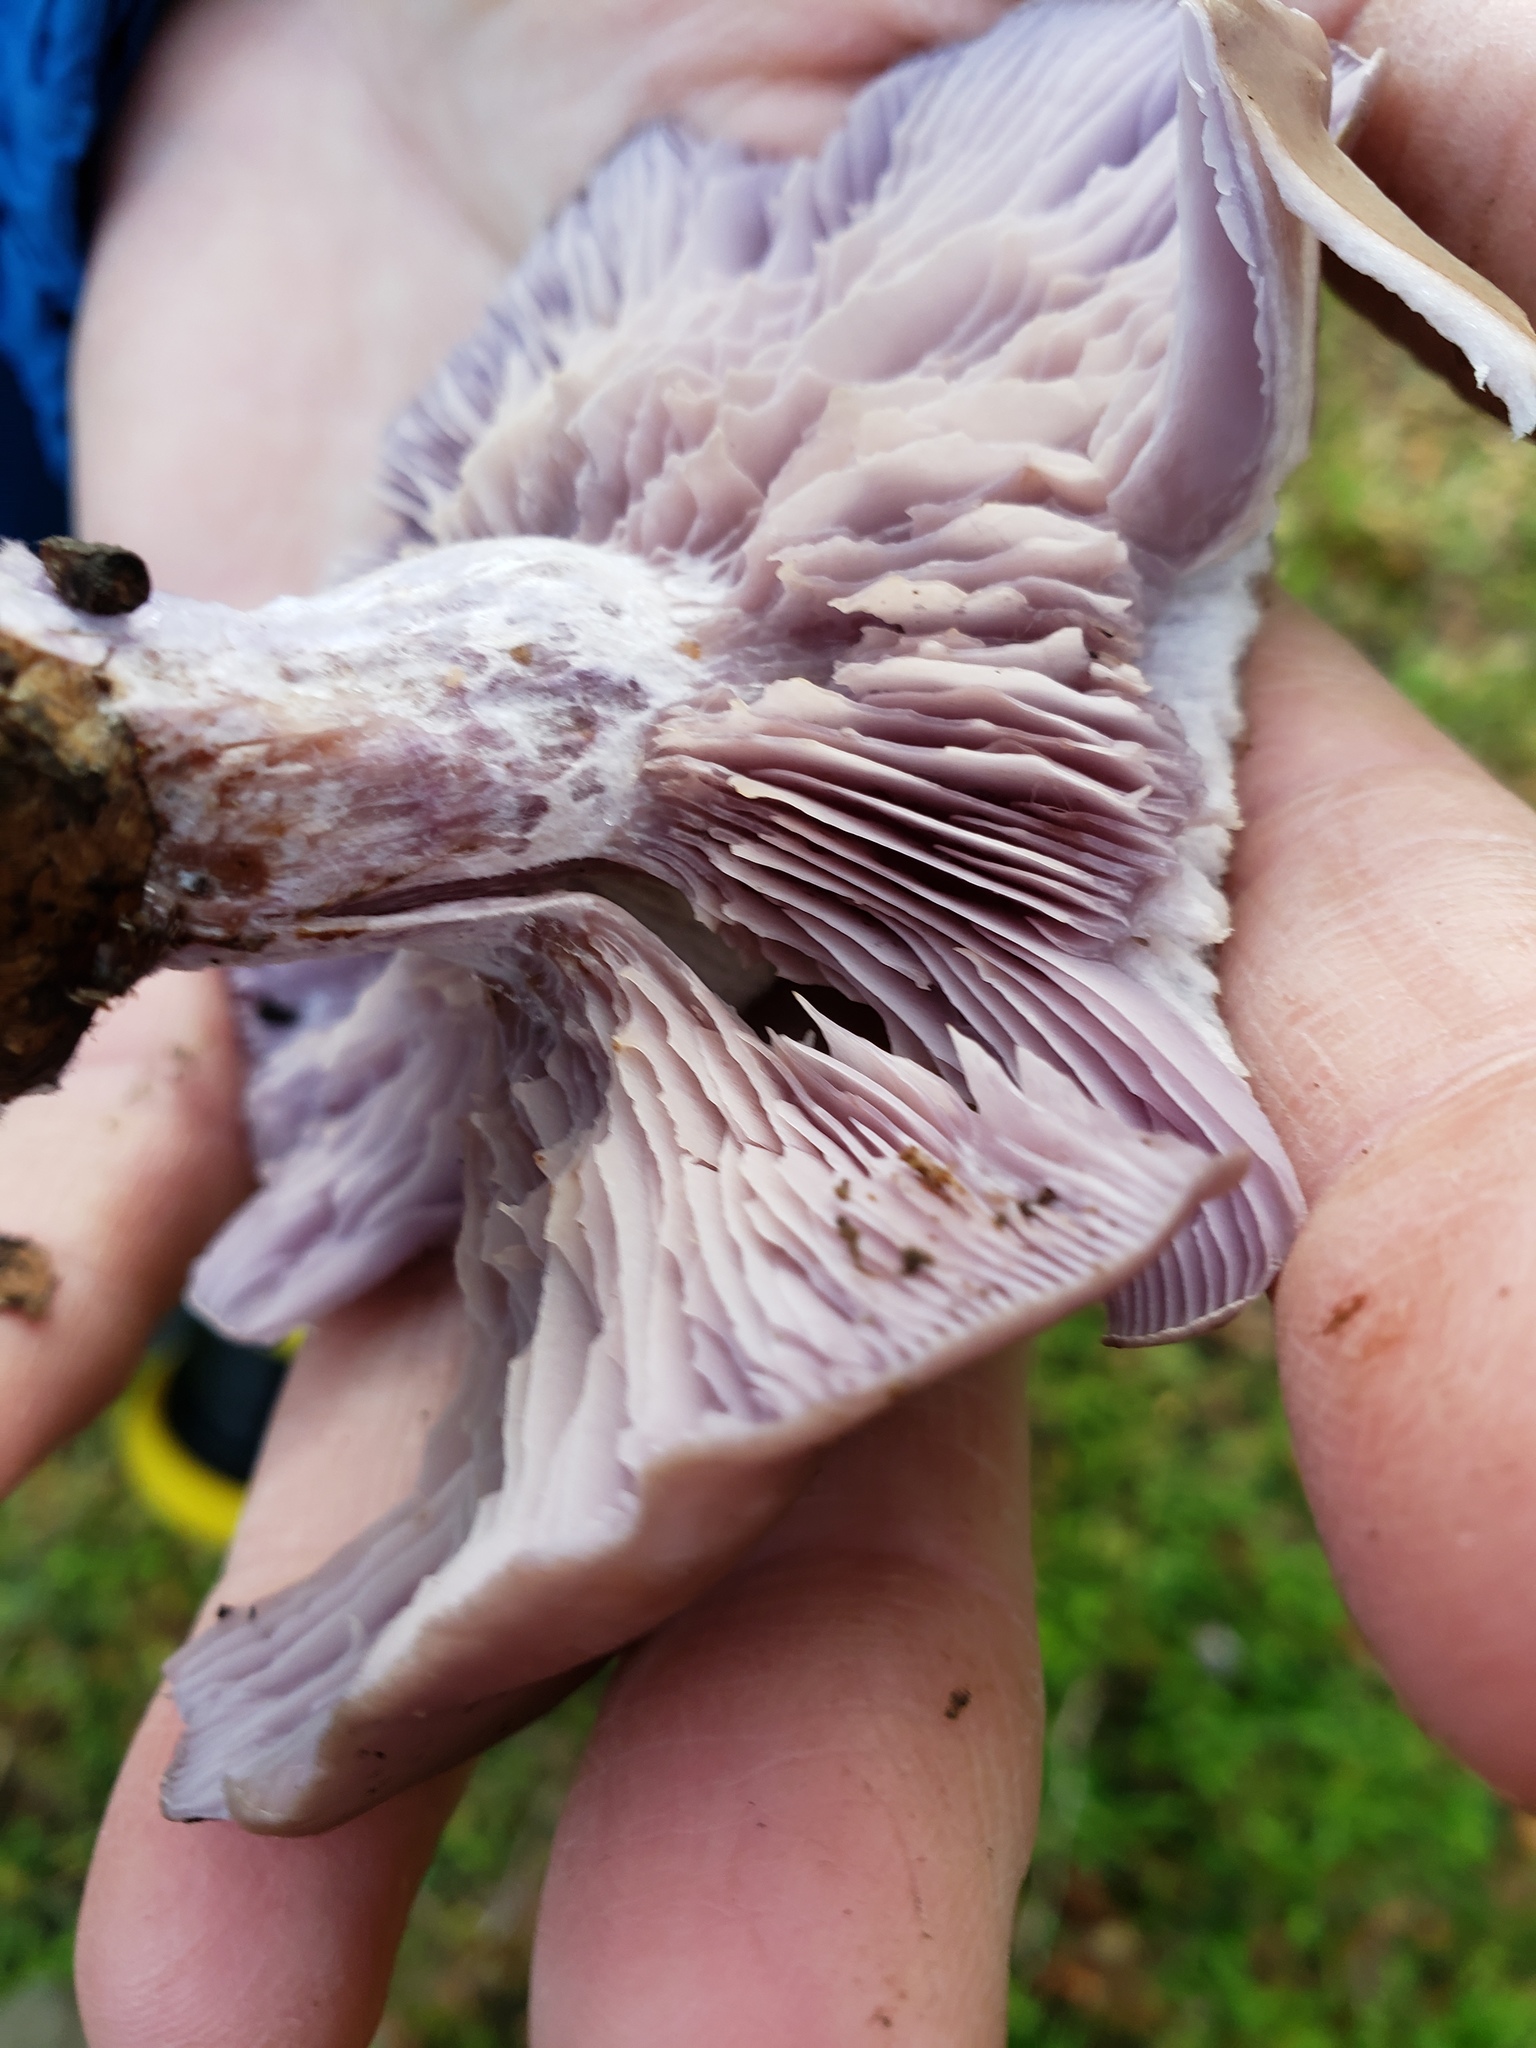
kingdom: Fungi
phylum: Basidiomycota
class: Agaricomycetes
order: Agaricales
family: Tricholomataceae
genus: Collybia
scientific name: Collybia
